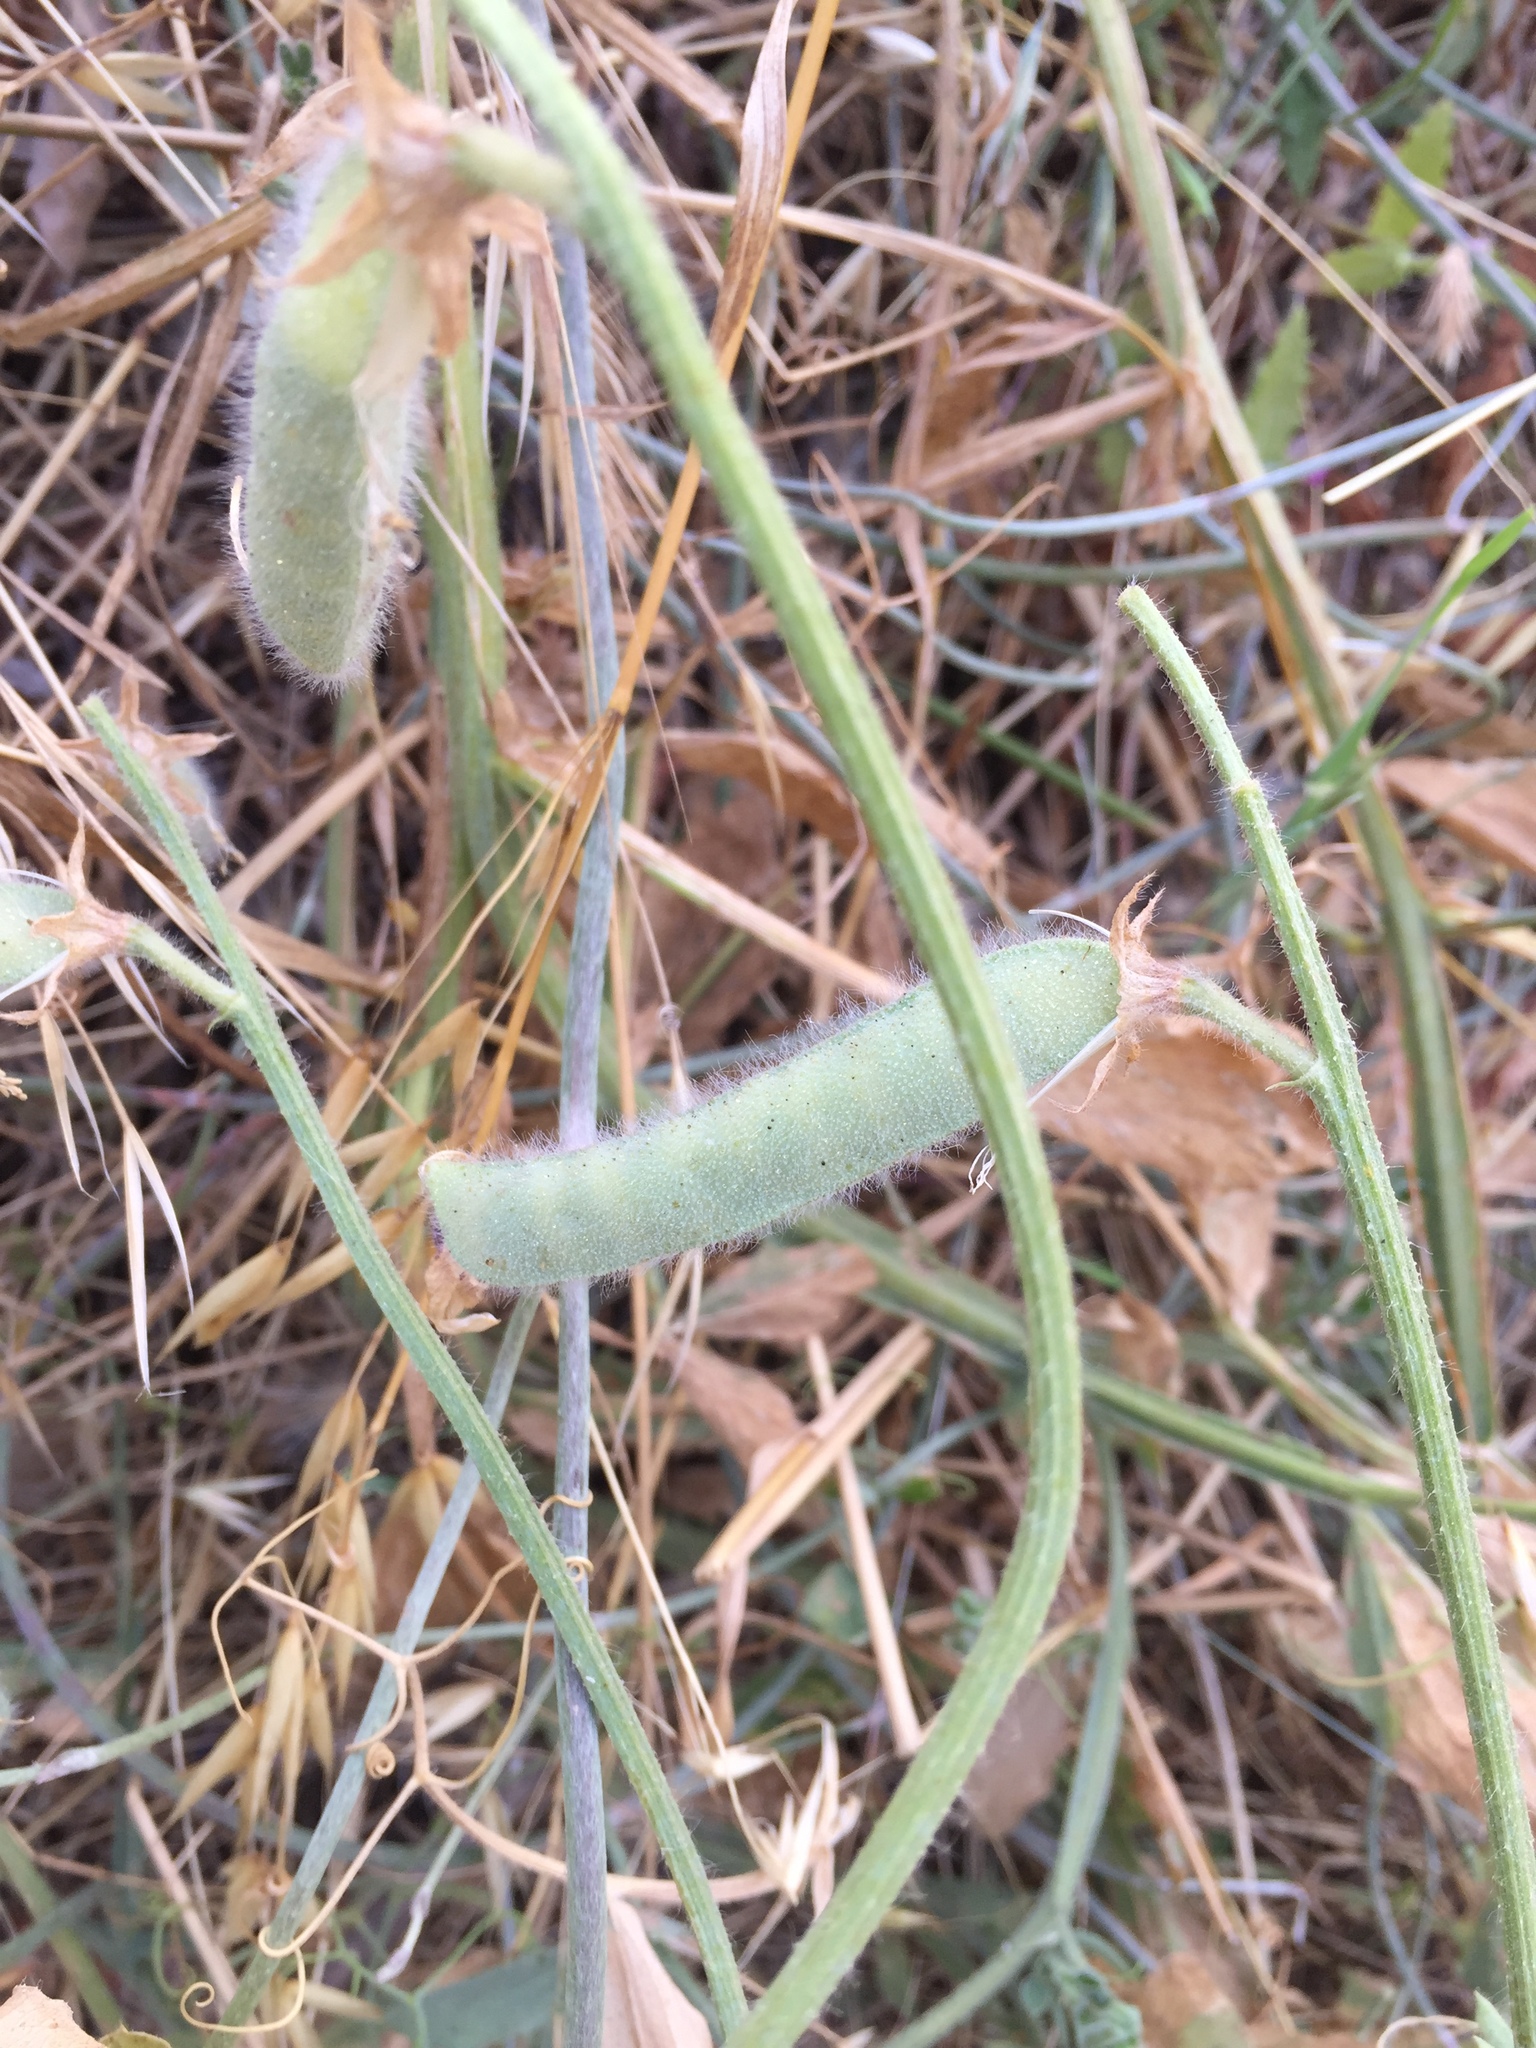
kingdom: Plantae
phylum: Tracheophyta
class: Magnoliopsida
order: Fabales
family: Fabaceae
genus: Lathyrus
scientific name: Lathyrus odoratus
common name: Sweet pea
